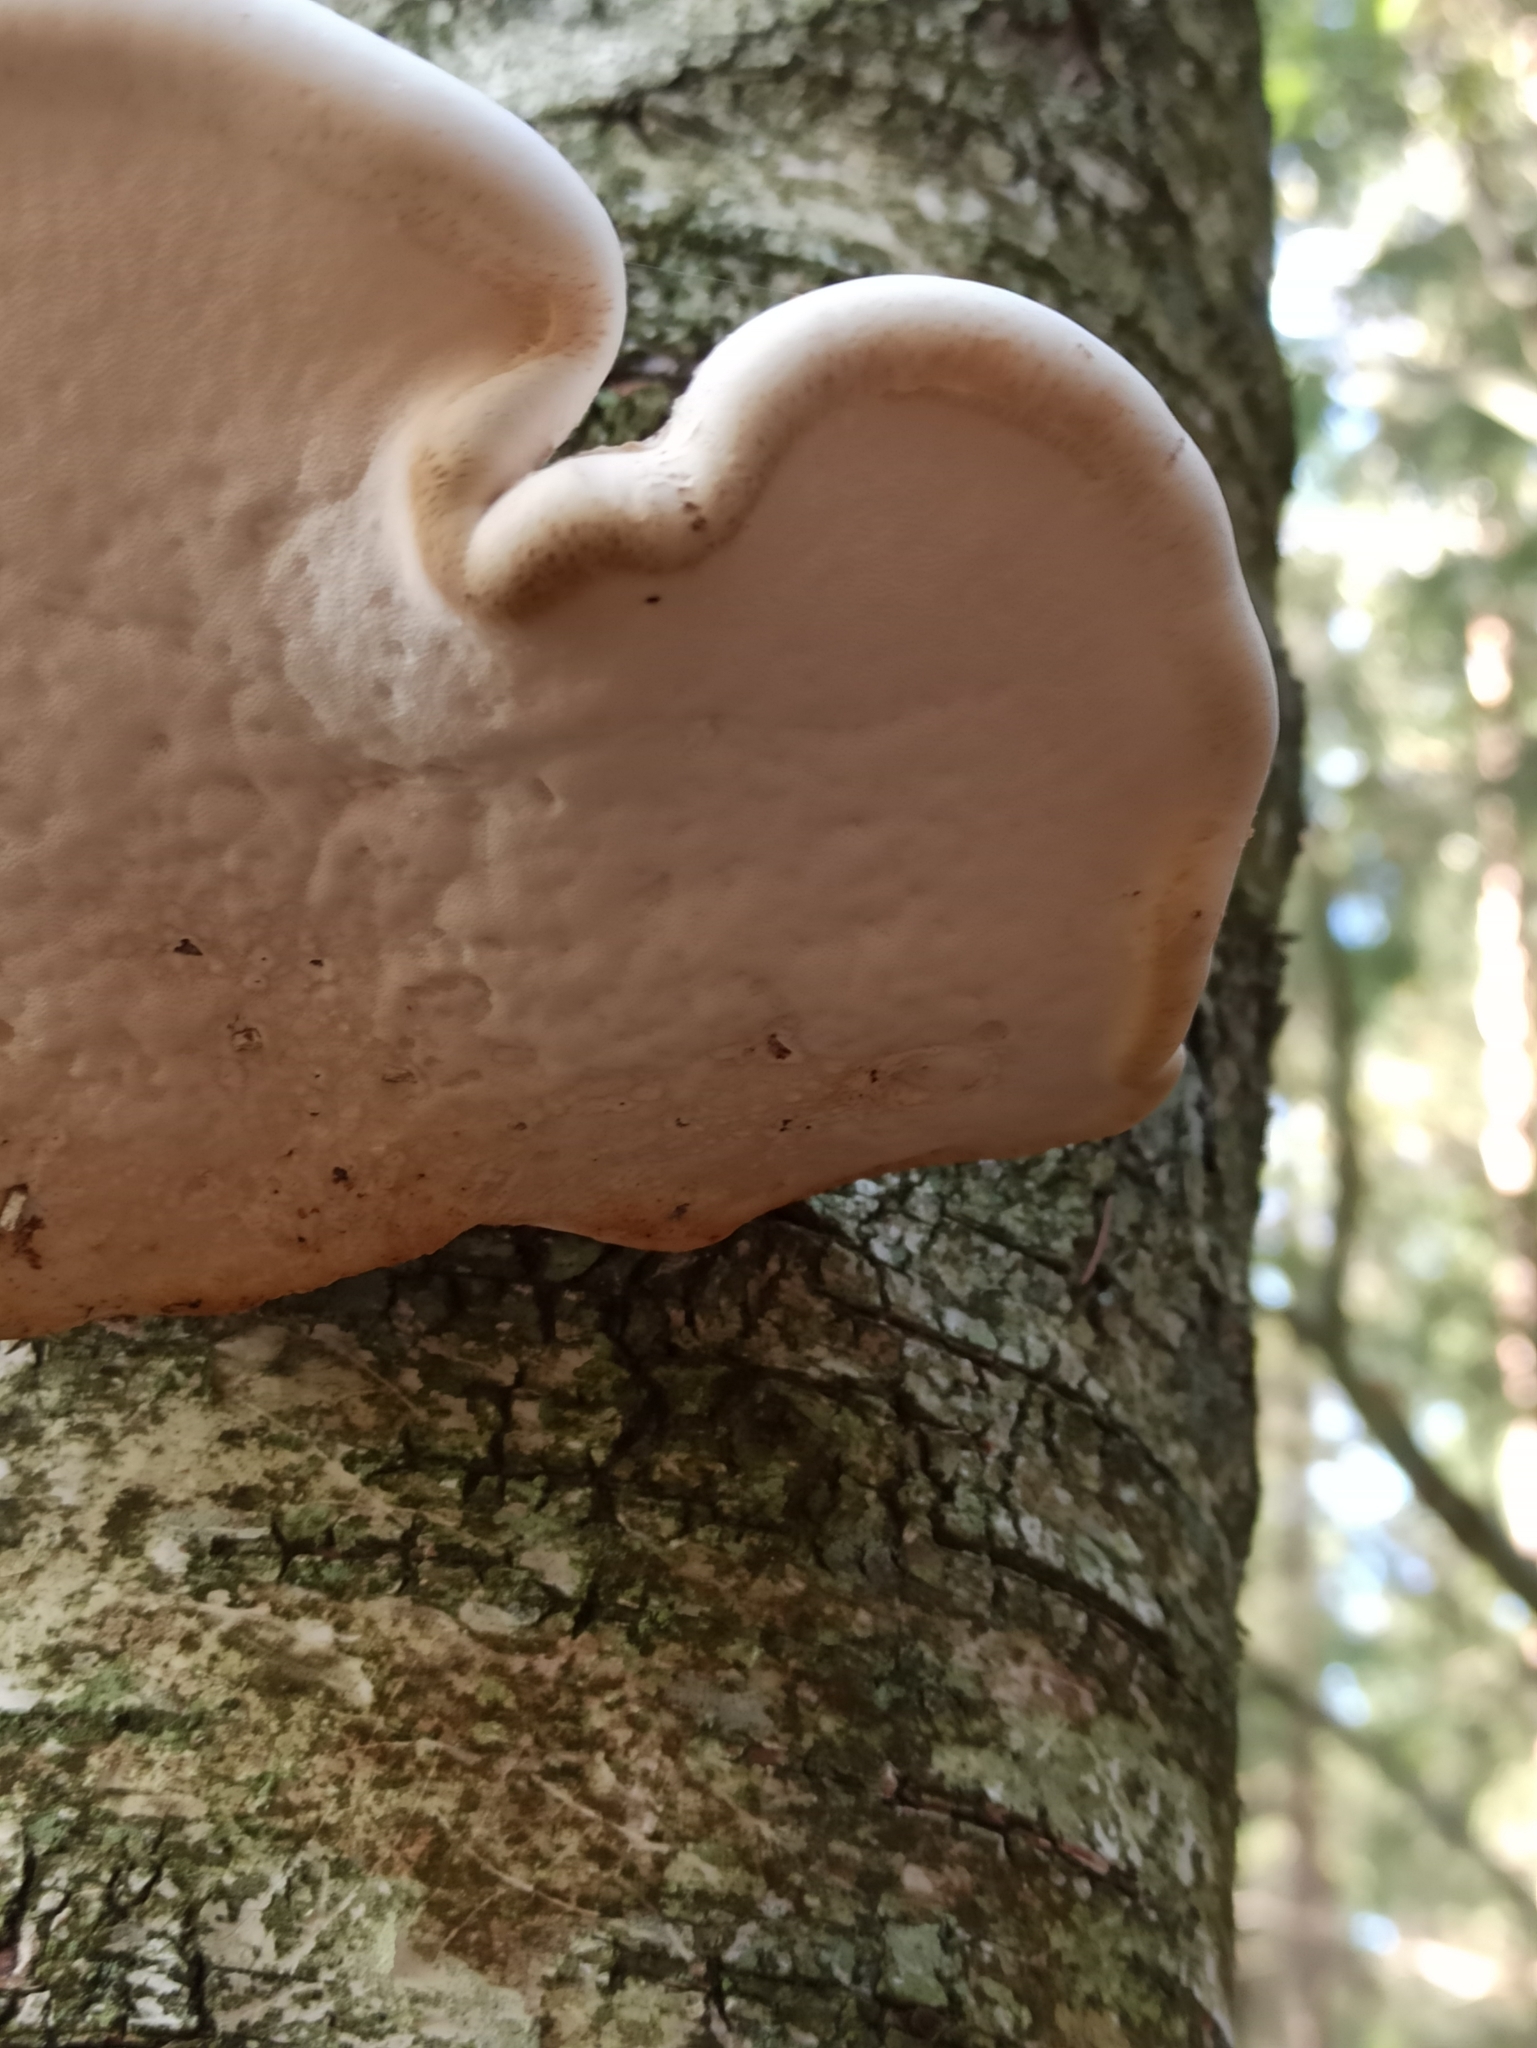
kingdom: Fungi
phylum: Basidiomycota
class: Agaricomycetes
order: Polyporales
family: Fomitopsidaceae
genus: Fomitopsis
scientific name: Fomitopsis betulina
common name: Birch polypore
